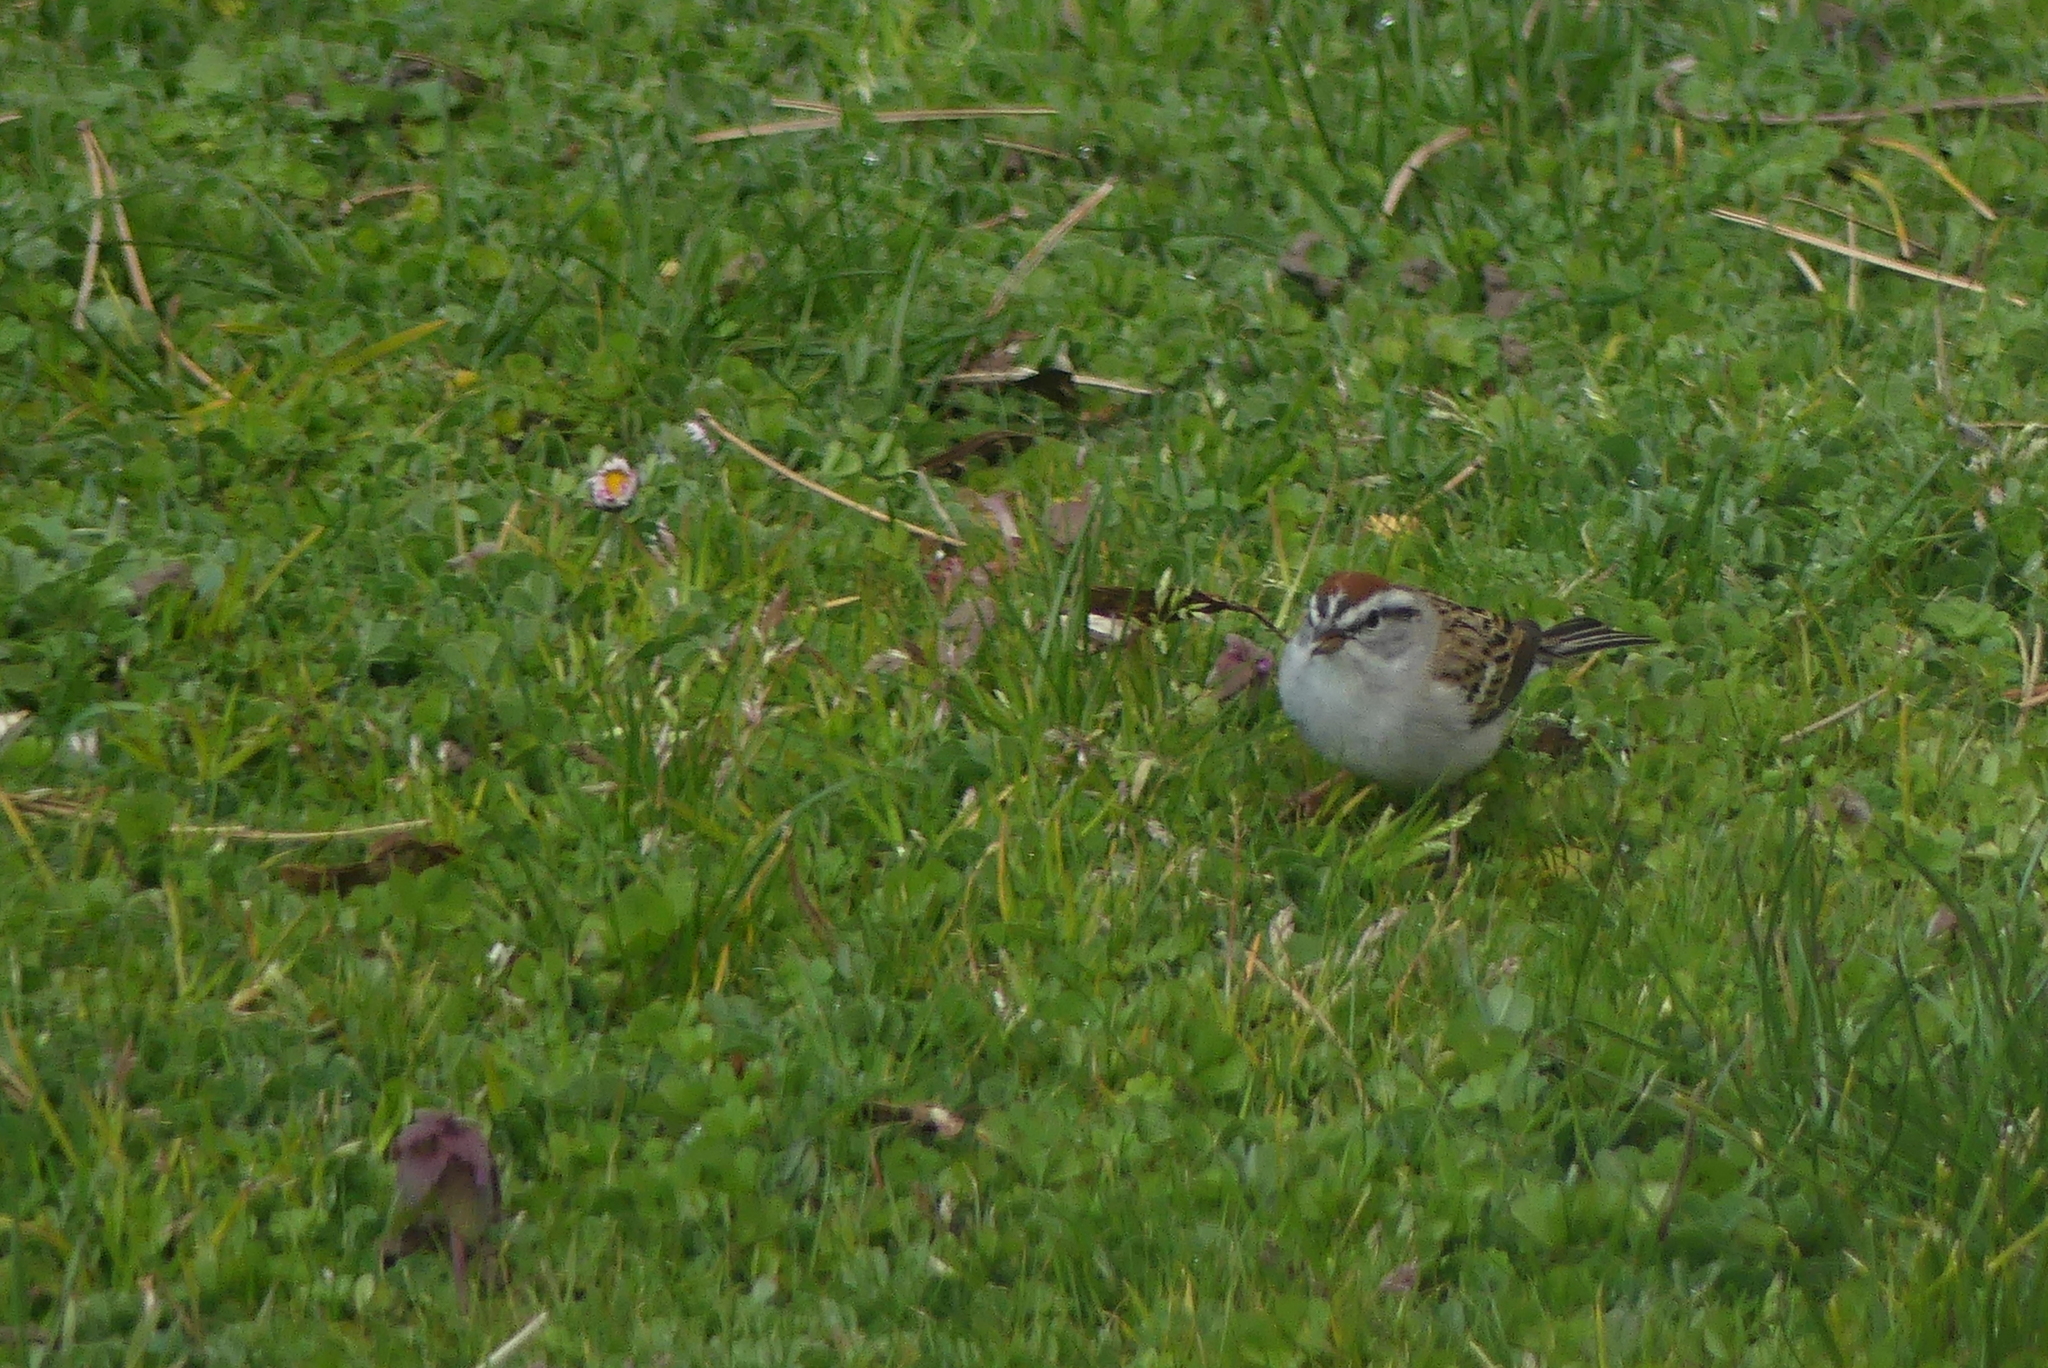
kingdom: Animalia
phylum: Chordata
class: Aves
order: Passeriformes
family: Passerellidae
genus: Spizella
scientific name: Spizella passerina
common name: Chipping sparrow
